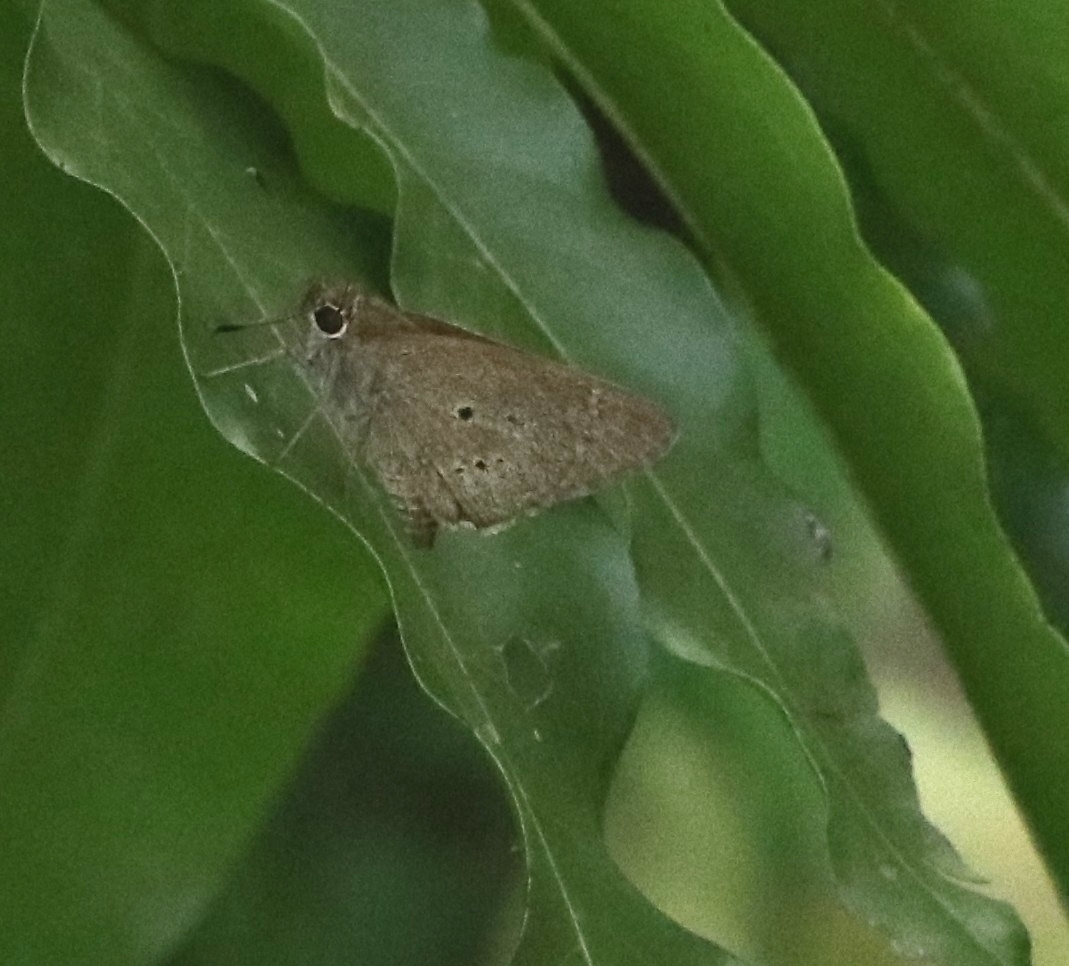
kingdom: Animalia
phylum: Arthropoda
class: Insecta
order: Lepidoptera
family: Hesperiidae
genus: Suastus
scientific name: Suastus gremius
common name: Indian palm bob
